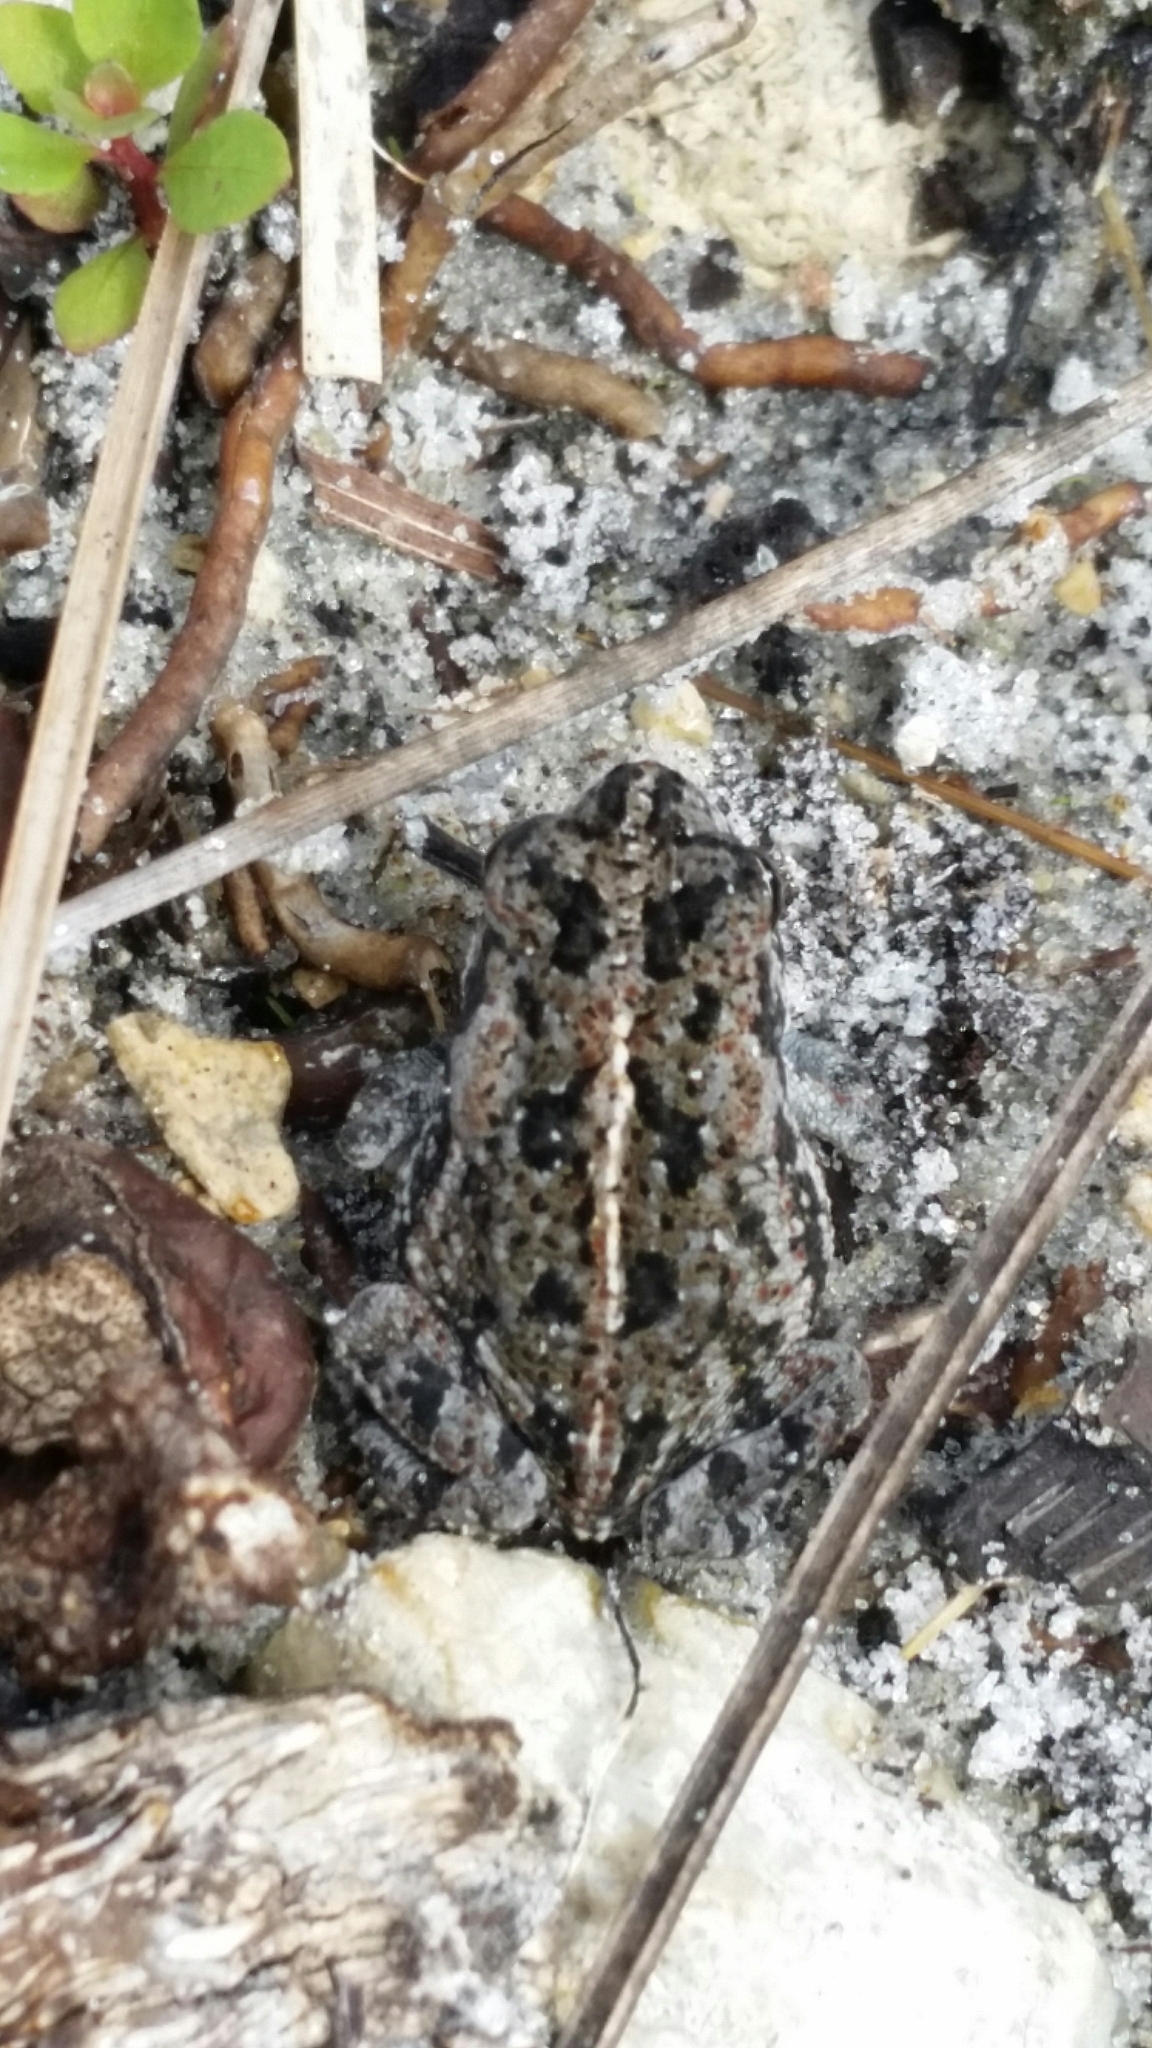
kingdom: Animalia
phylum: Chordata
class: Amphibia
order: Anura
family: Bufonidae
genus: Anaxyrus
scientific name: Anaxyrus quercicus
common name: Oak toad
